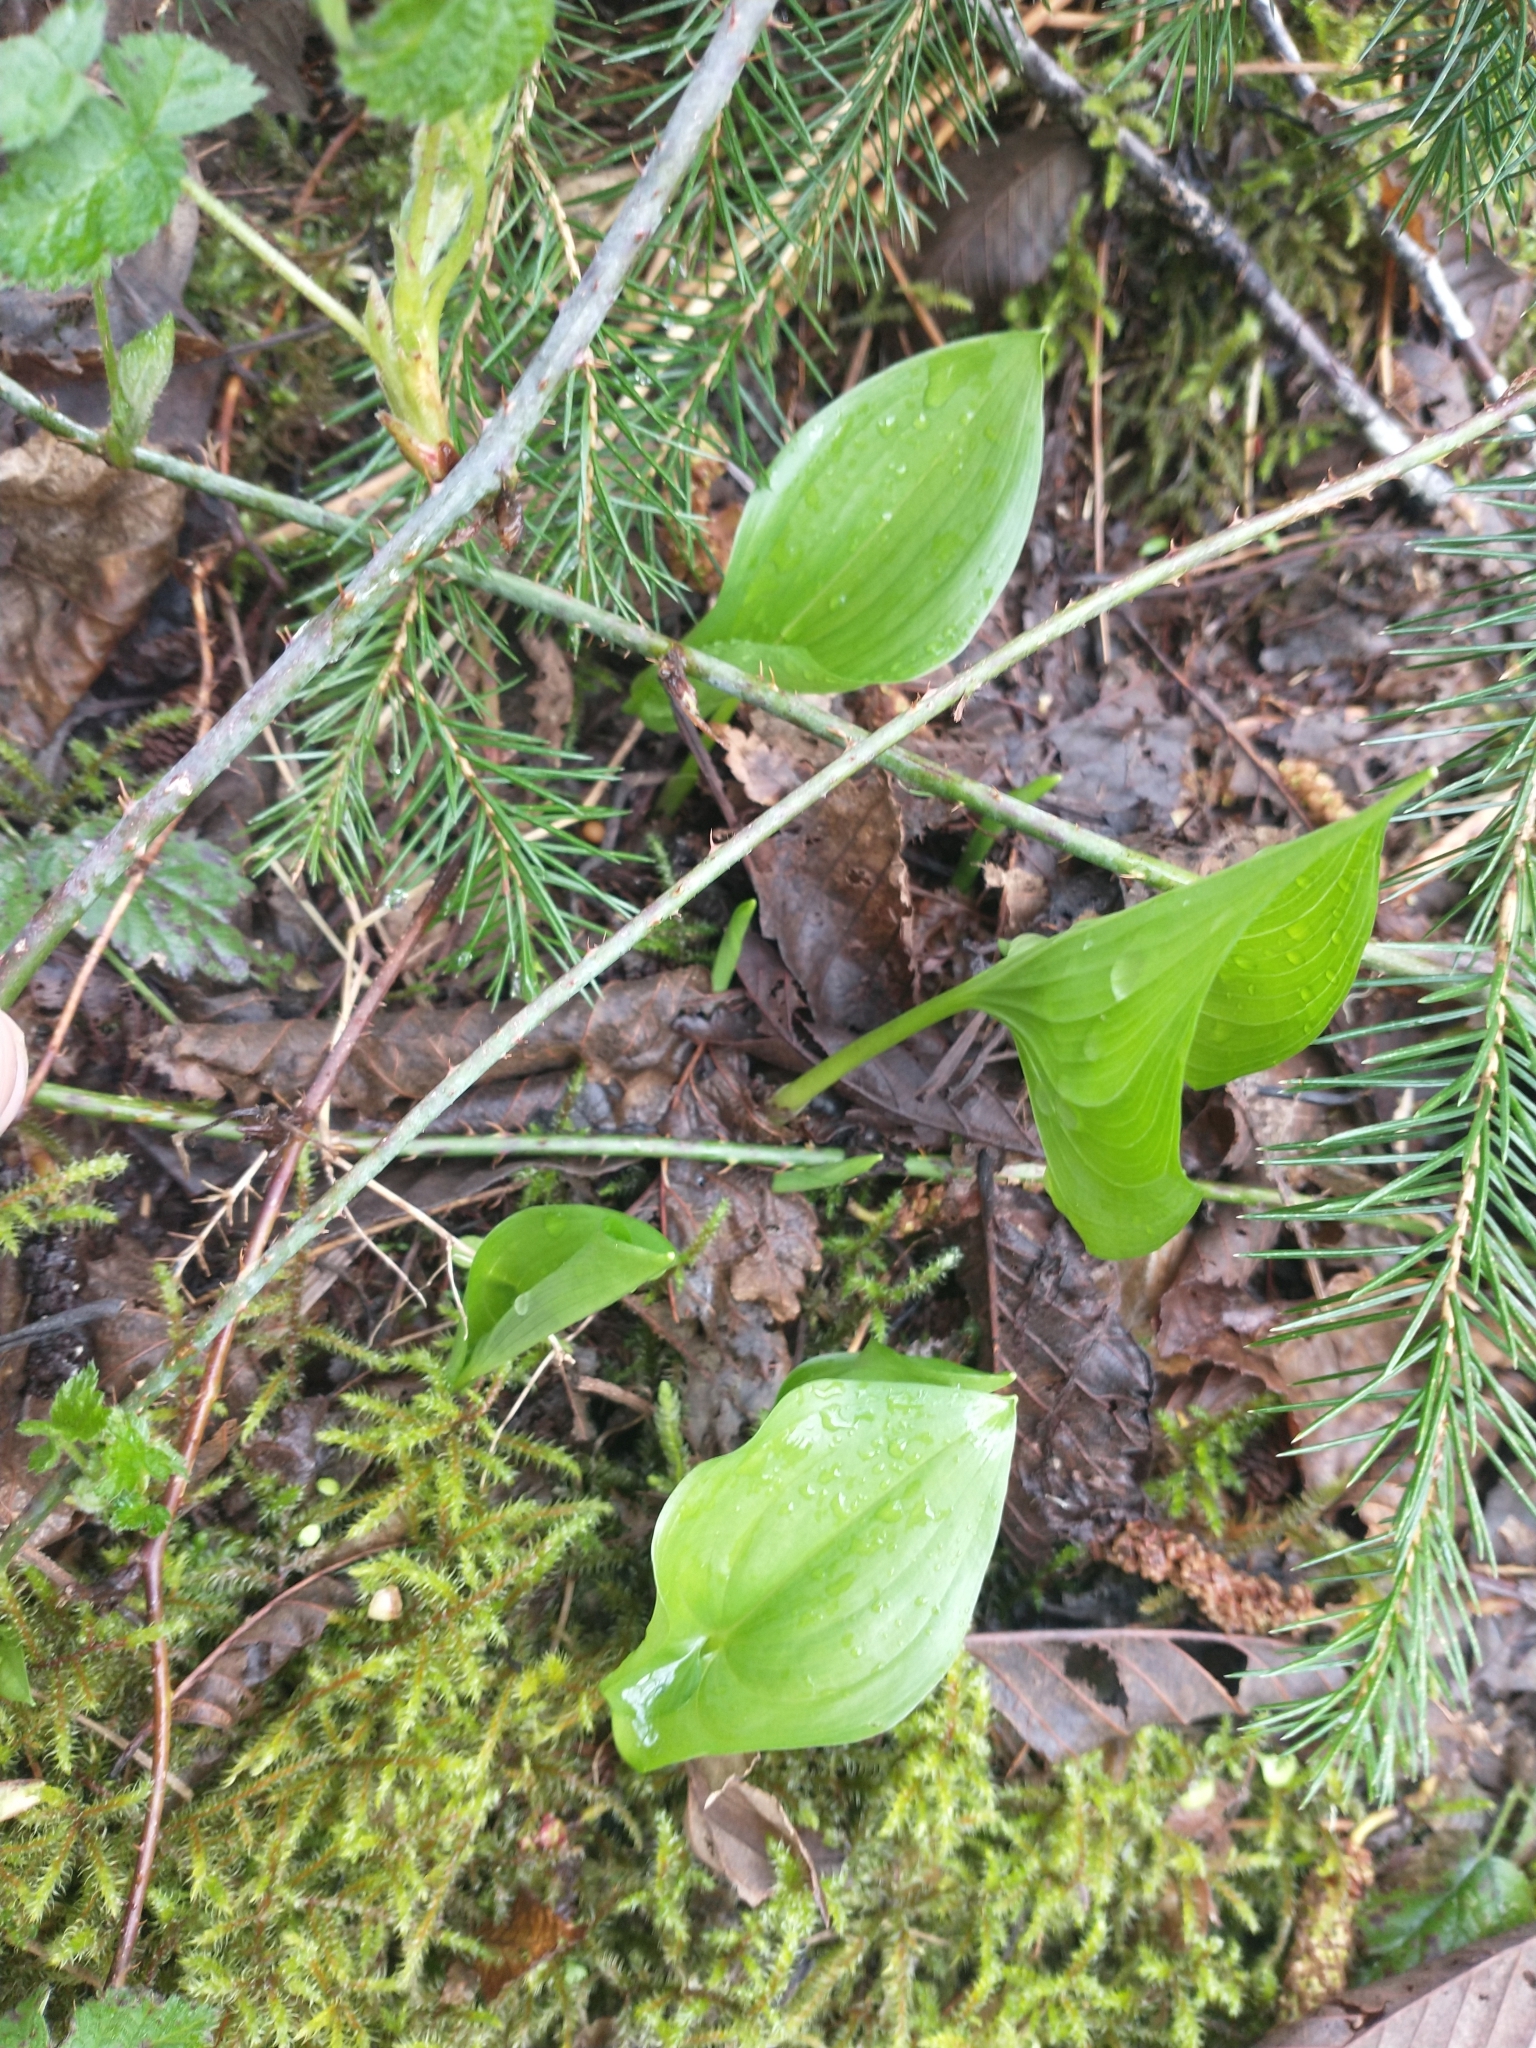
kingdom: Plantae
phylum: Tracheophyta
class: Liliopsida
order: Asparagales
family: Asparagaceae
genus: Maianthemum
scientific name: Maianthemum dilatatum
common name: False lily-of-the-valley
